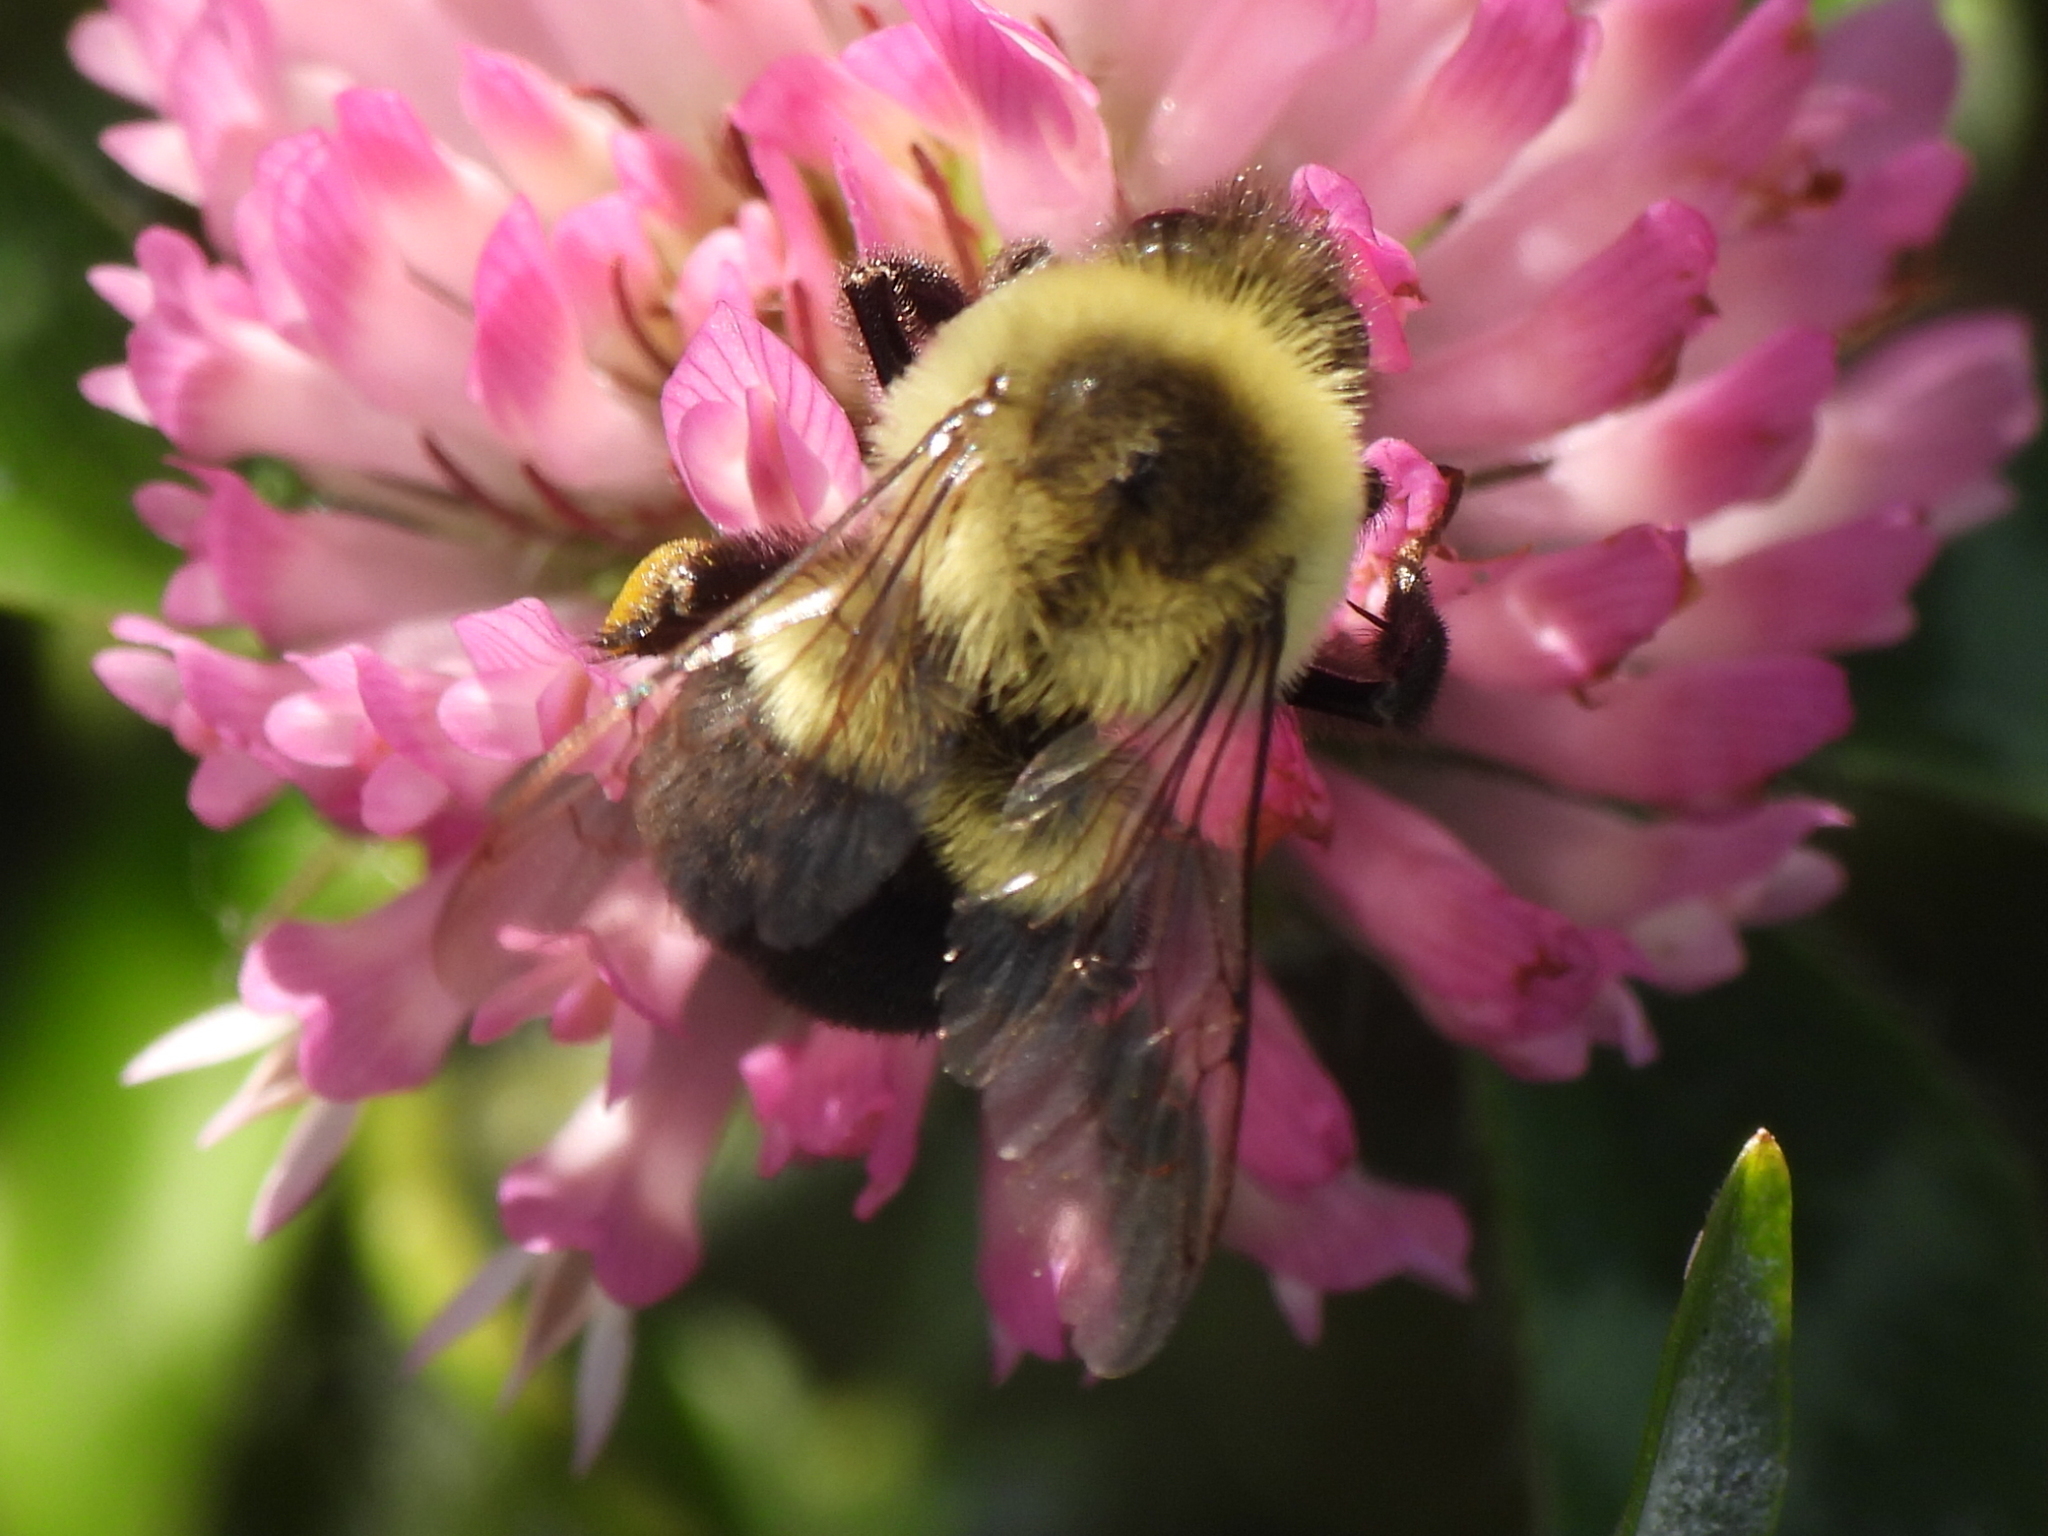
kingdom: Animalia
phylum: Arthropoda
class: Insecta
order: Hymenoptera
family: Apidae
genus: Bombus
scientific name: Bombus impatiens
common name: Common eastern bumble bee
